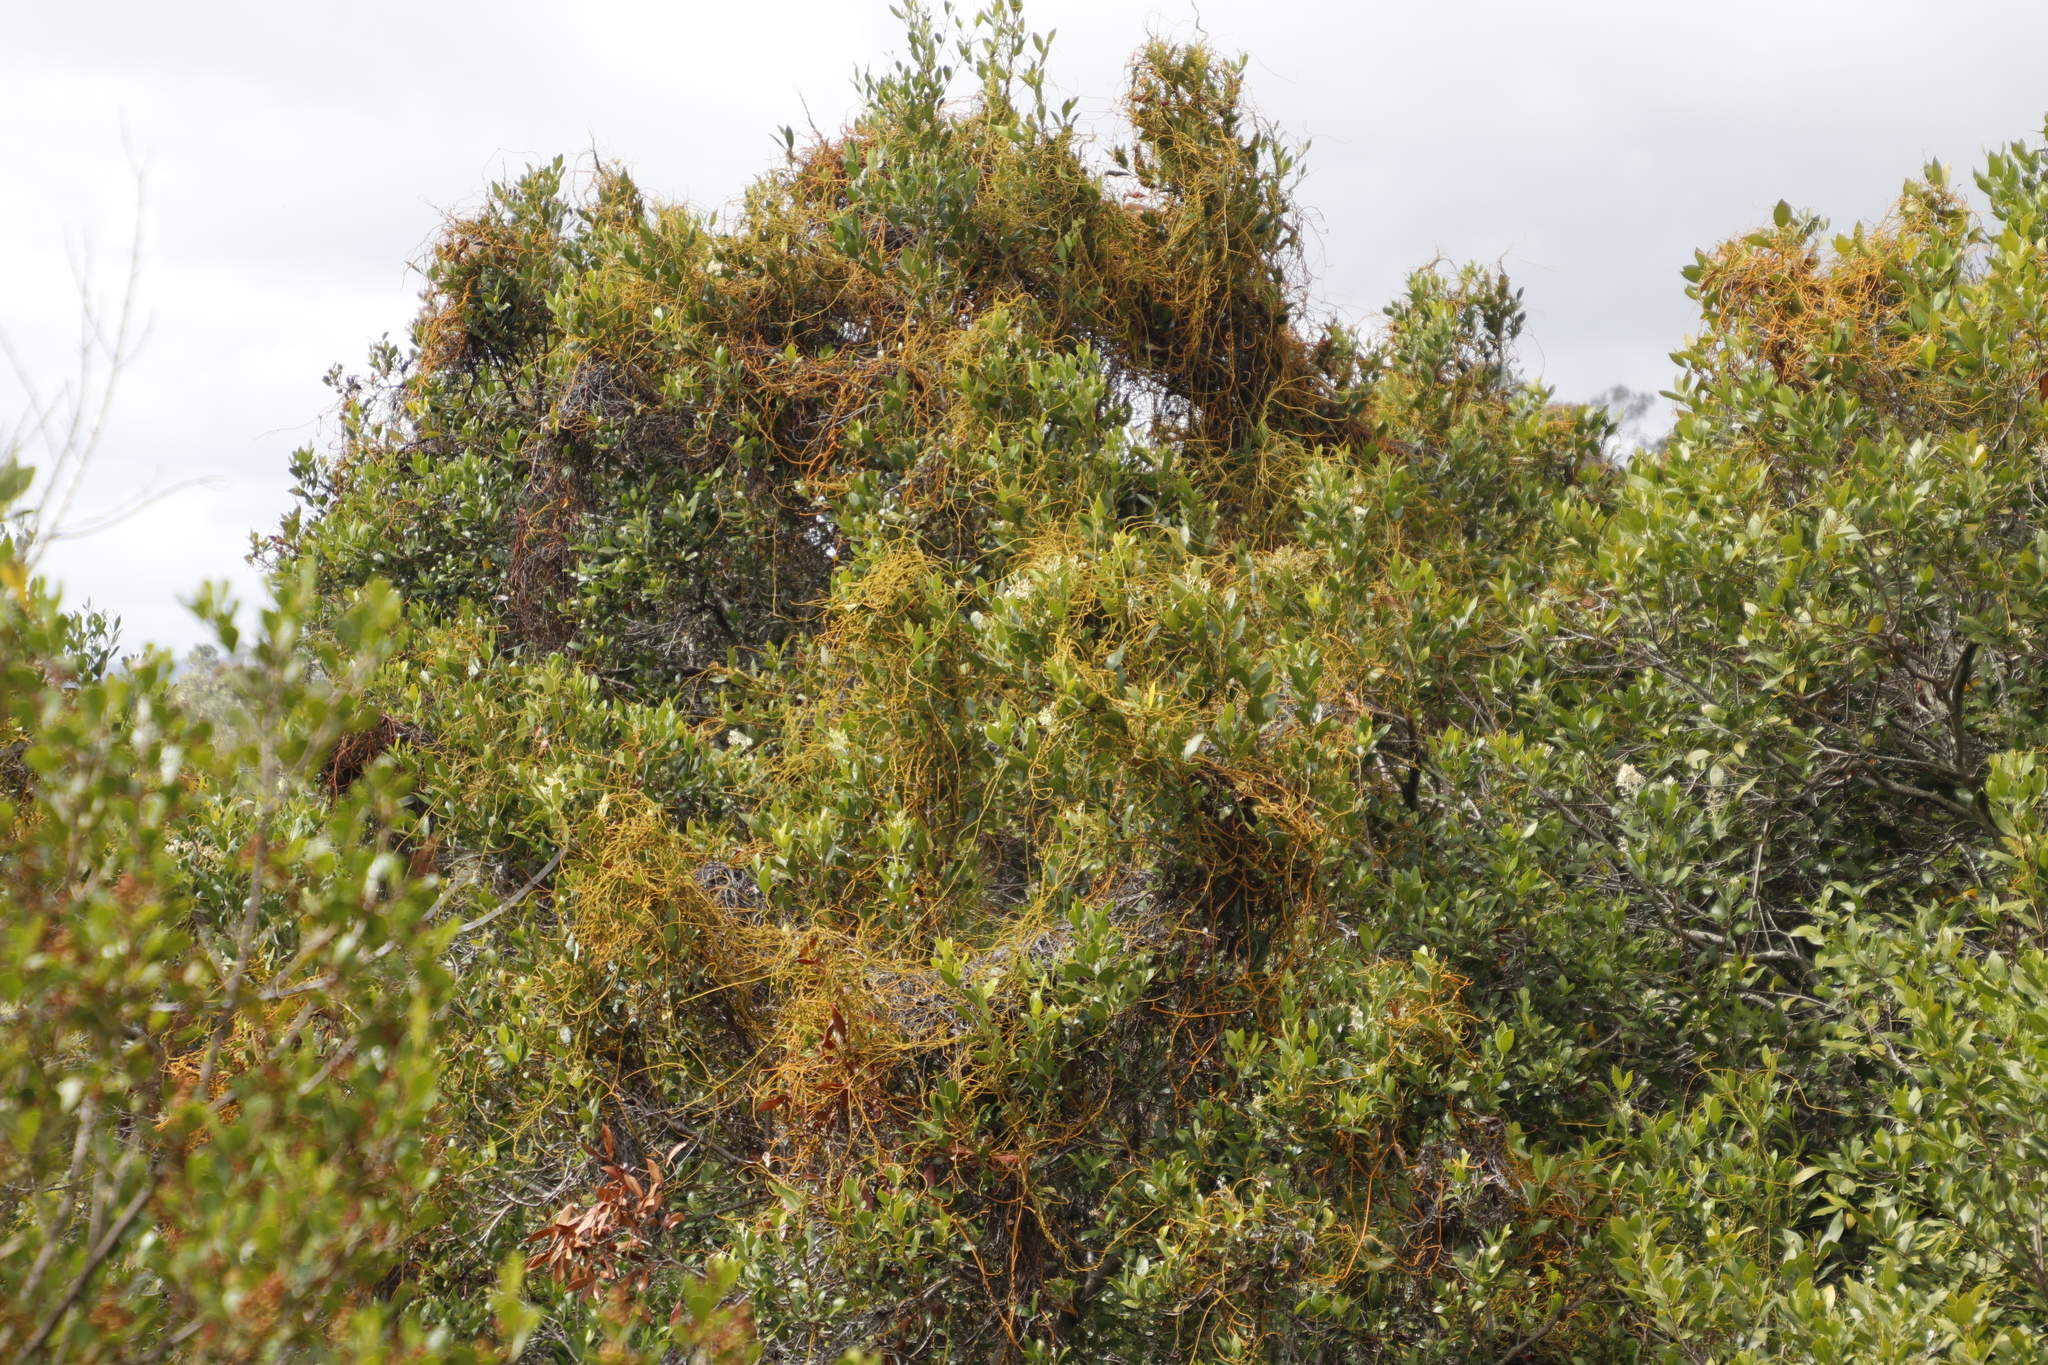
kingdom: Plantae
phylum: Tracheophyta
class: Magnoliopsida
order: Laurales
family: Lauraceae
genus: Cassytha
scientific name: Cassytha ciliolata
